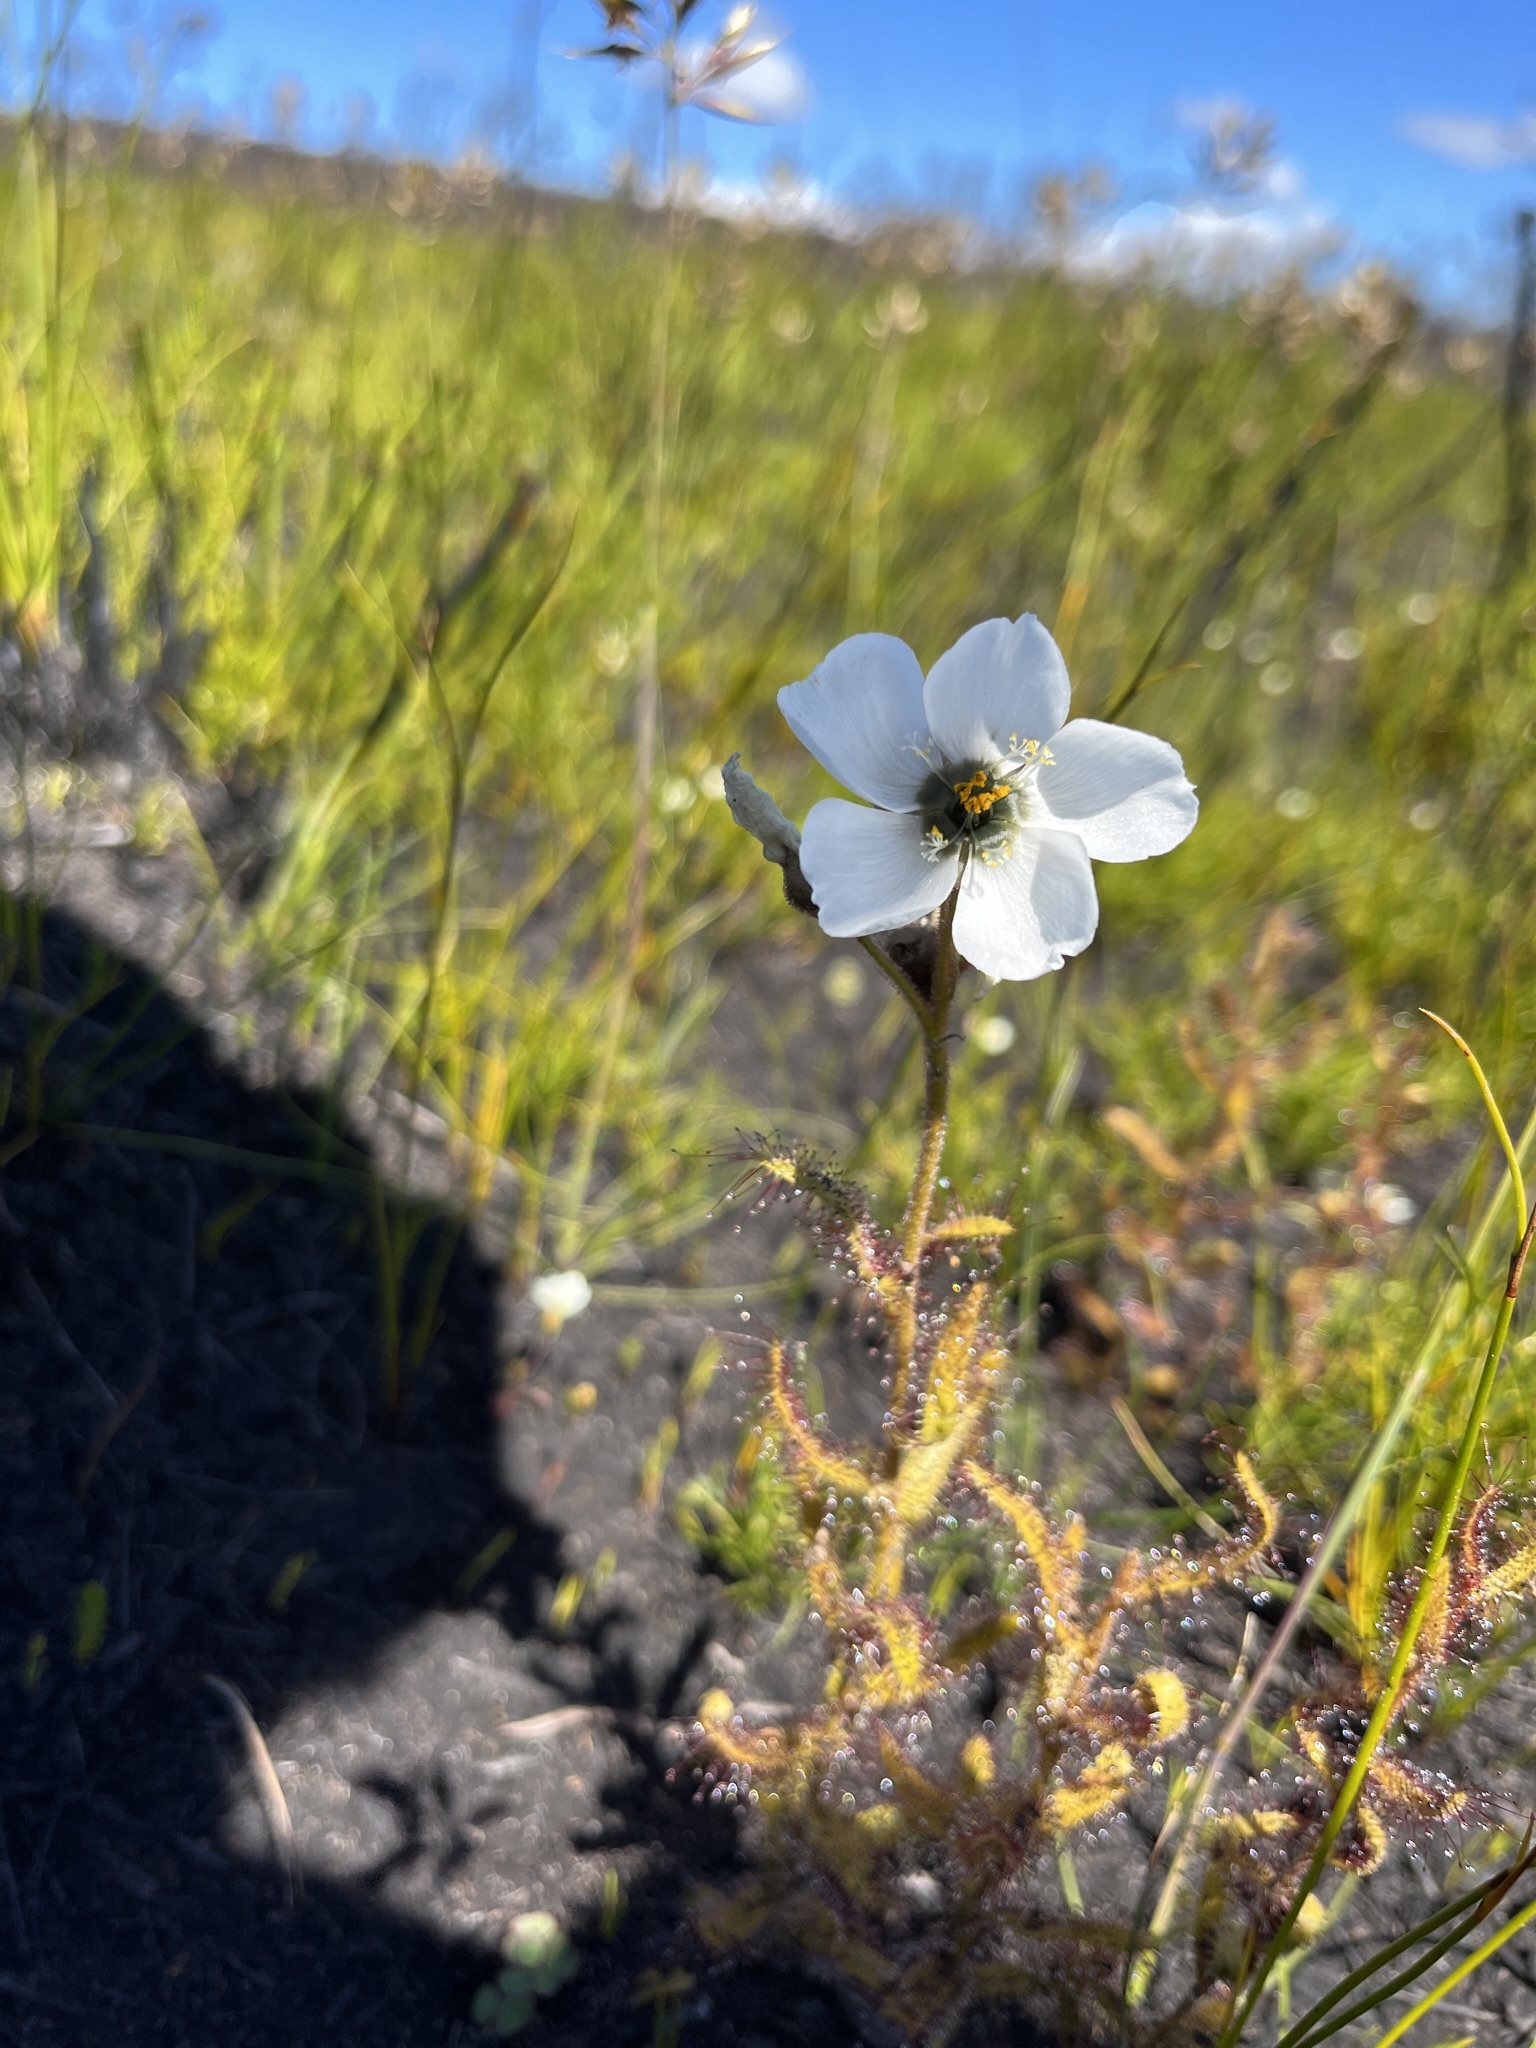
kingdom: Plantae
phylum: Tracheophyta
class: Magnoliopsida
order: Caryophyllales
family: Droseraceae
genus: Drosera
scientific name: Drosera cistiflora
